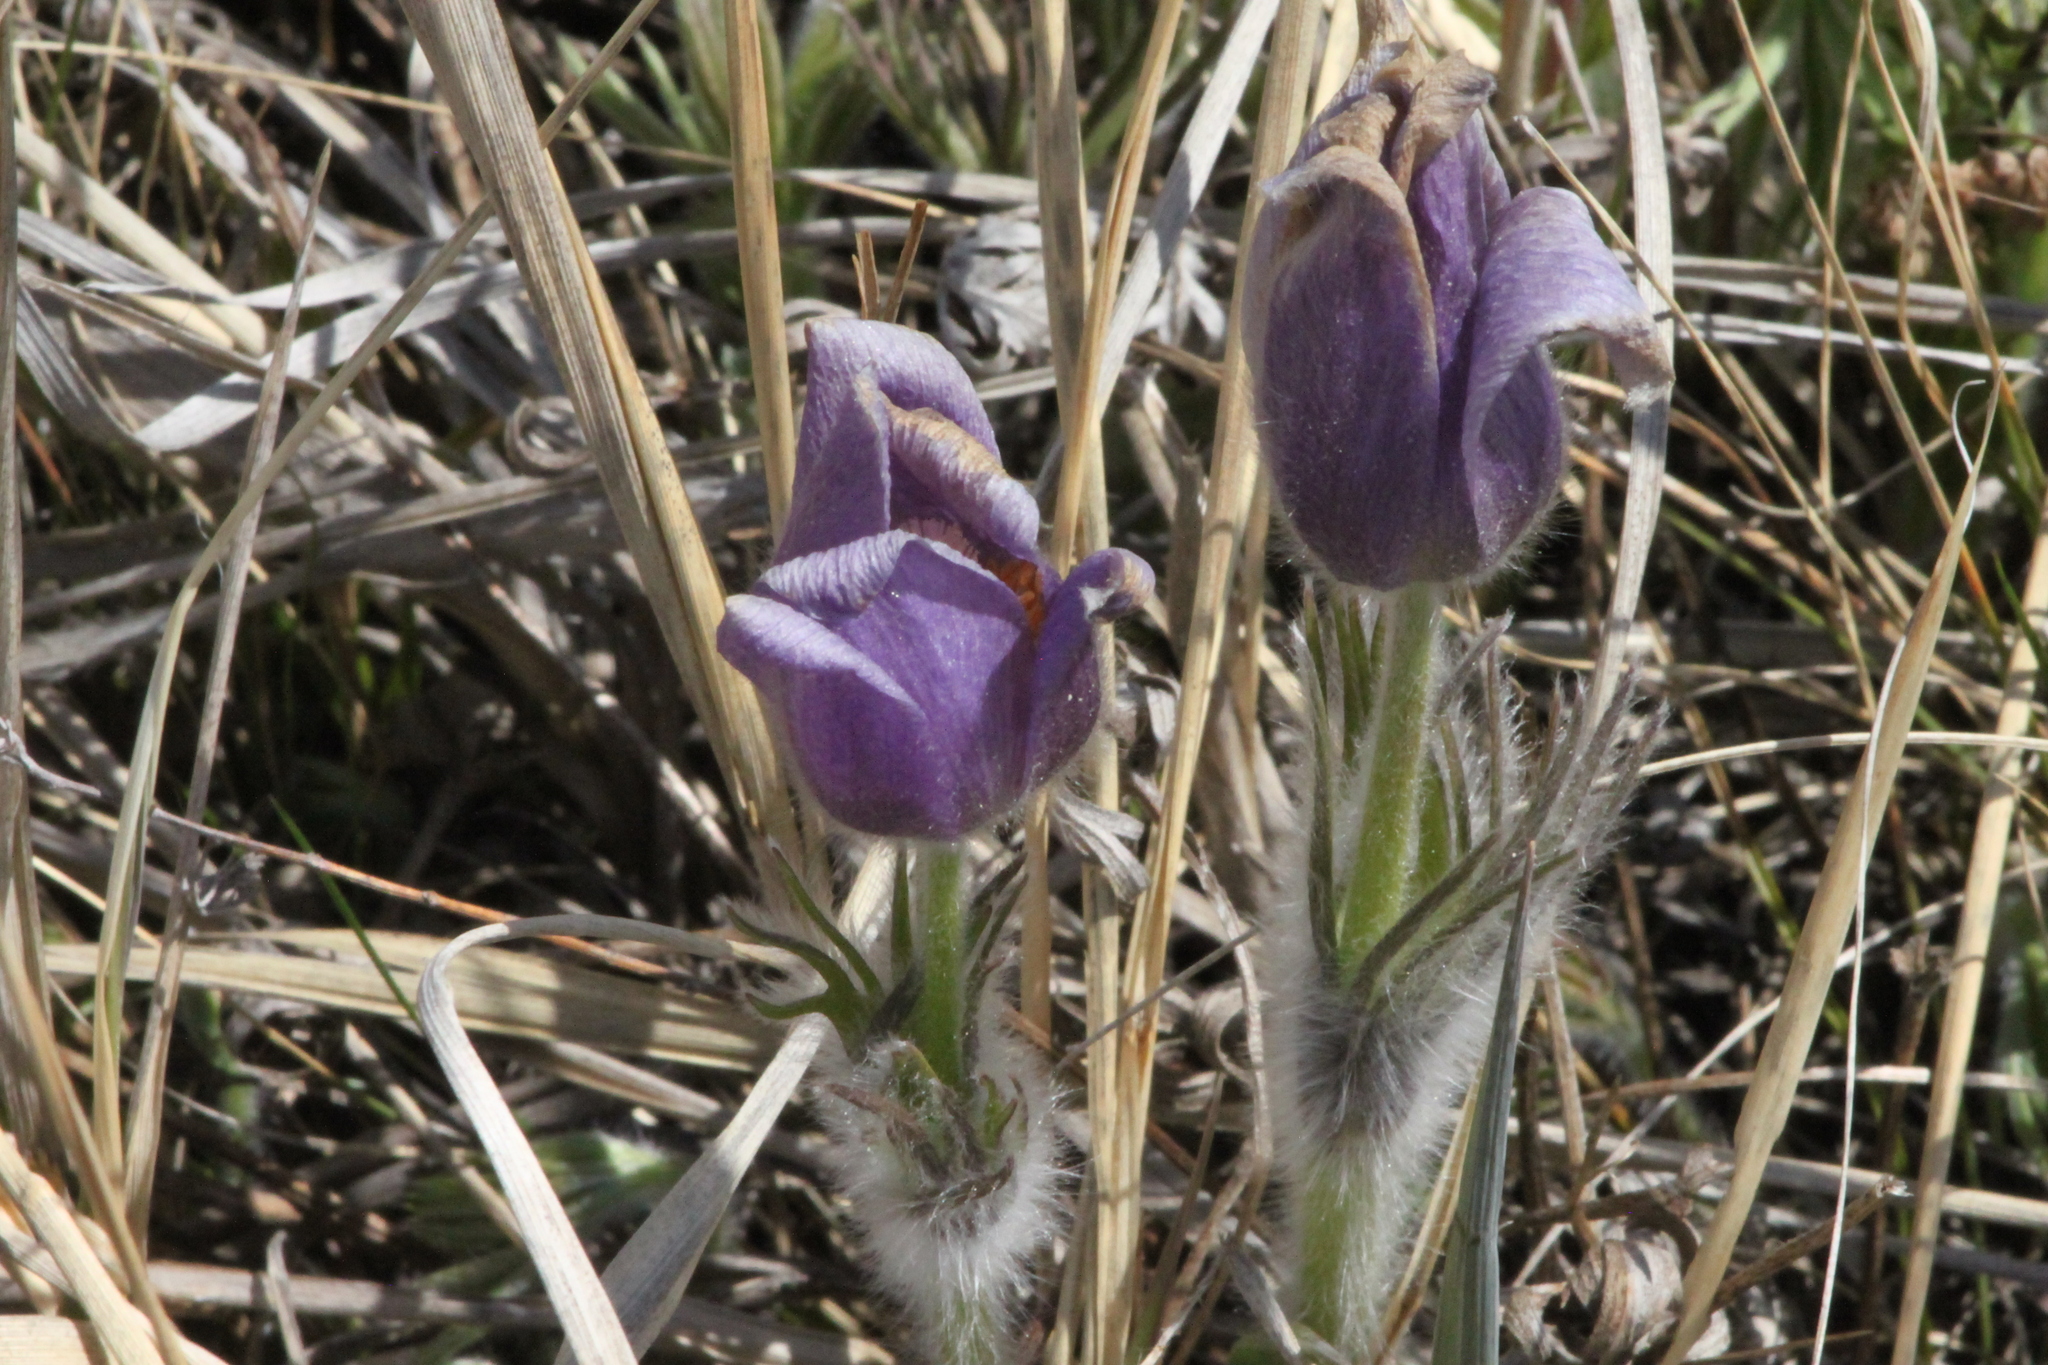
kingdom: Plantae
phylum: Tracheophyta
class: Magnoliopsida
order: Ranunculales
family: Ranunculaceae
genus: Pulsatilla
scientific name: Pulsatilla patens
